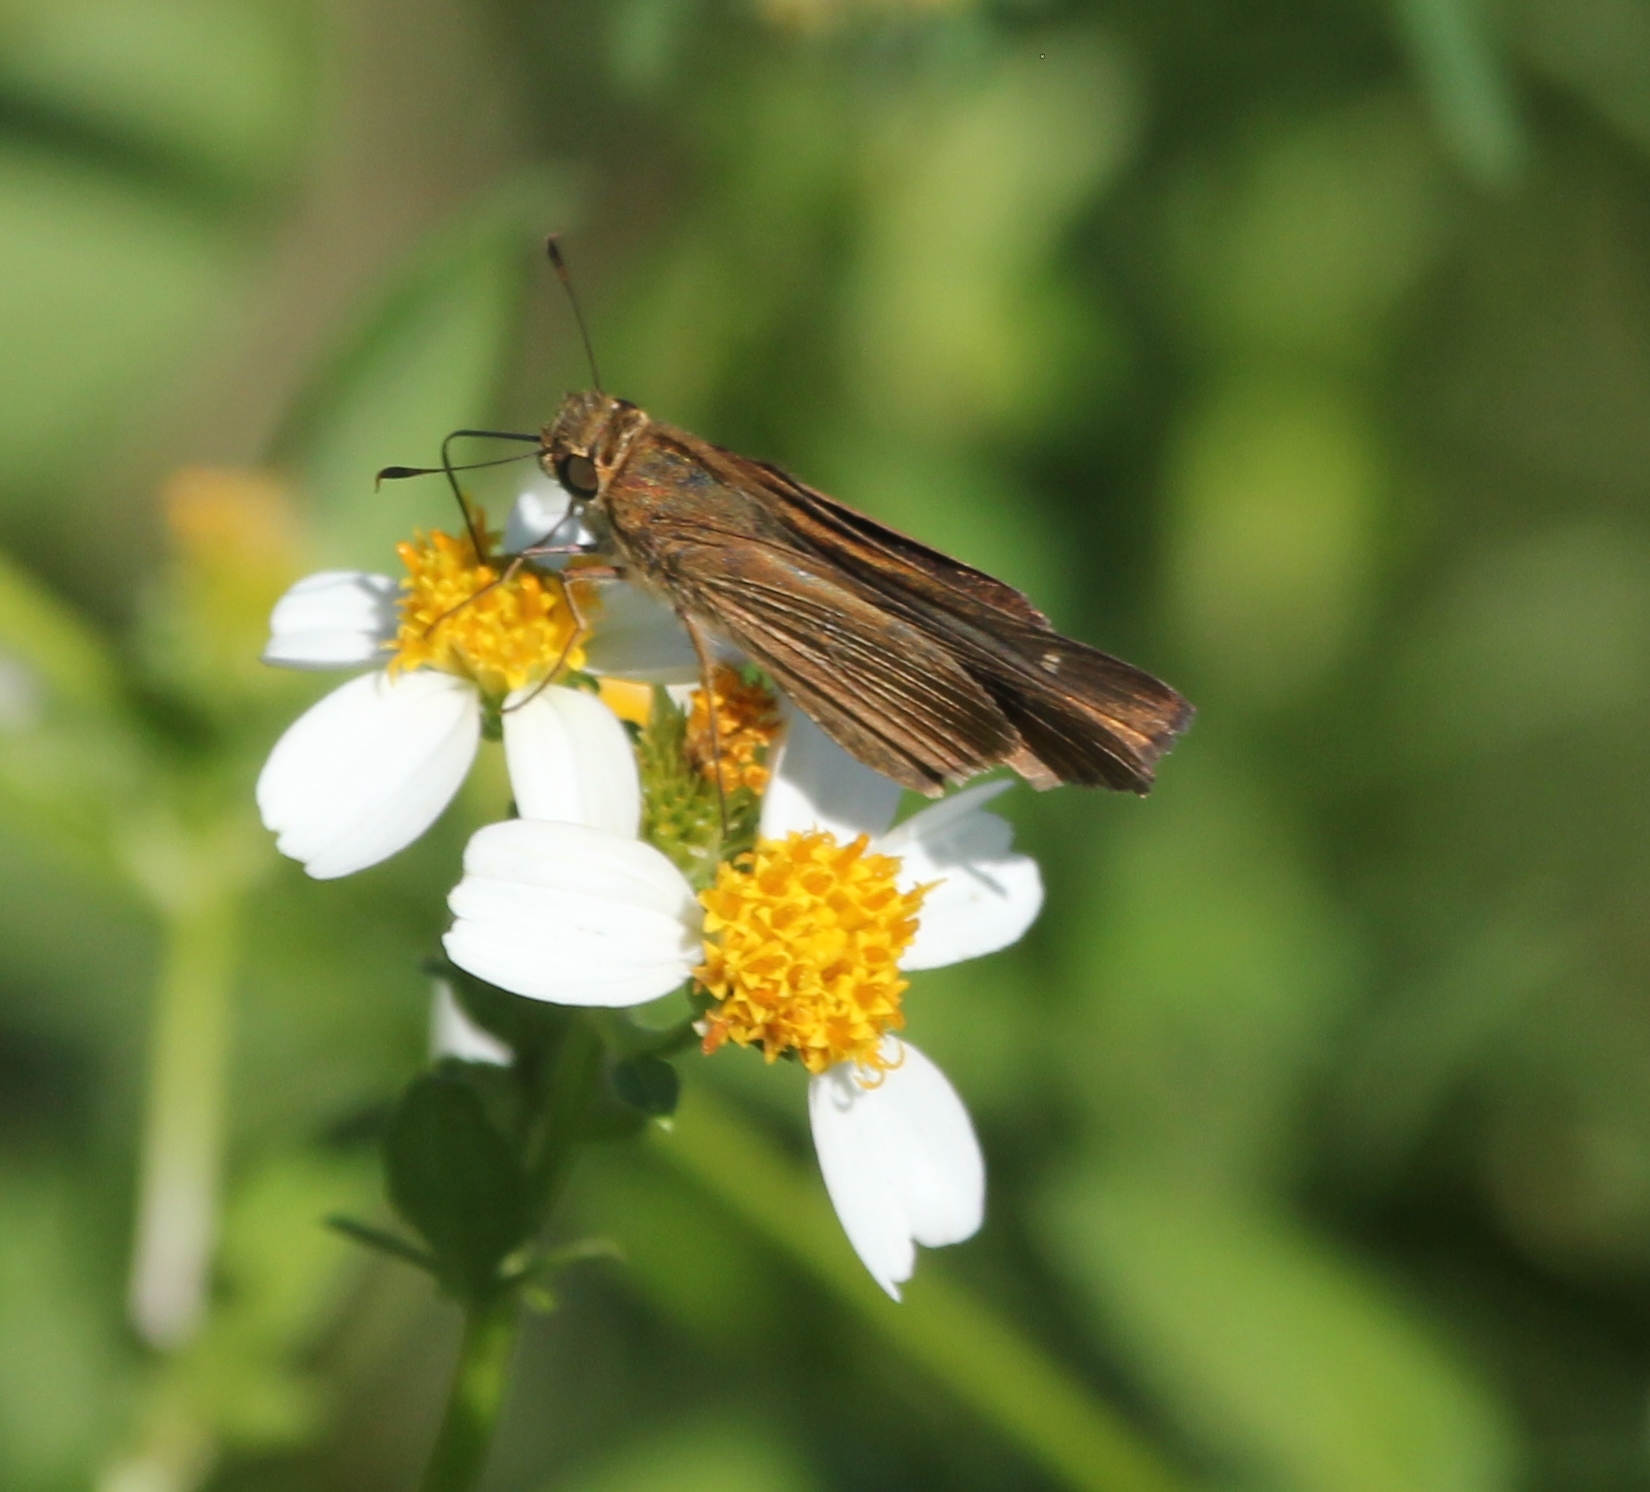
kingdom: Animalia
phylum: Arthropoda
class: Insecta
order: Lepidoptera
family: Hesperiidae
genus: Panoquina
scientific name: Panoquina ocola
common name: Ocola skipper
